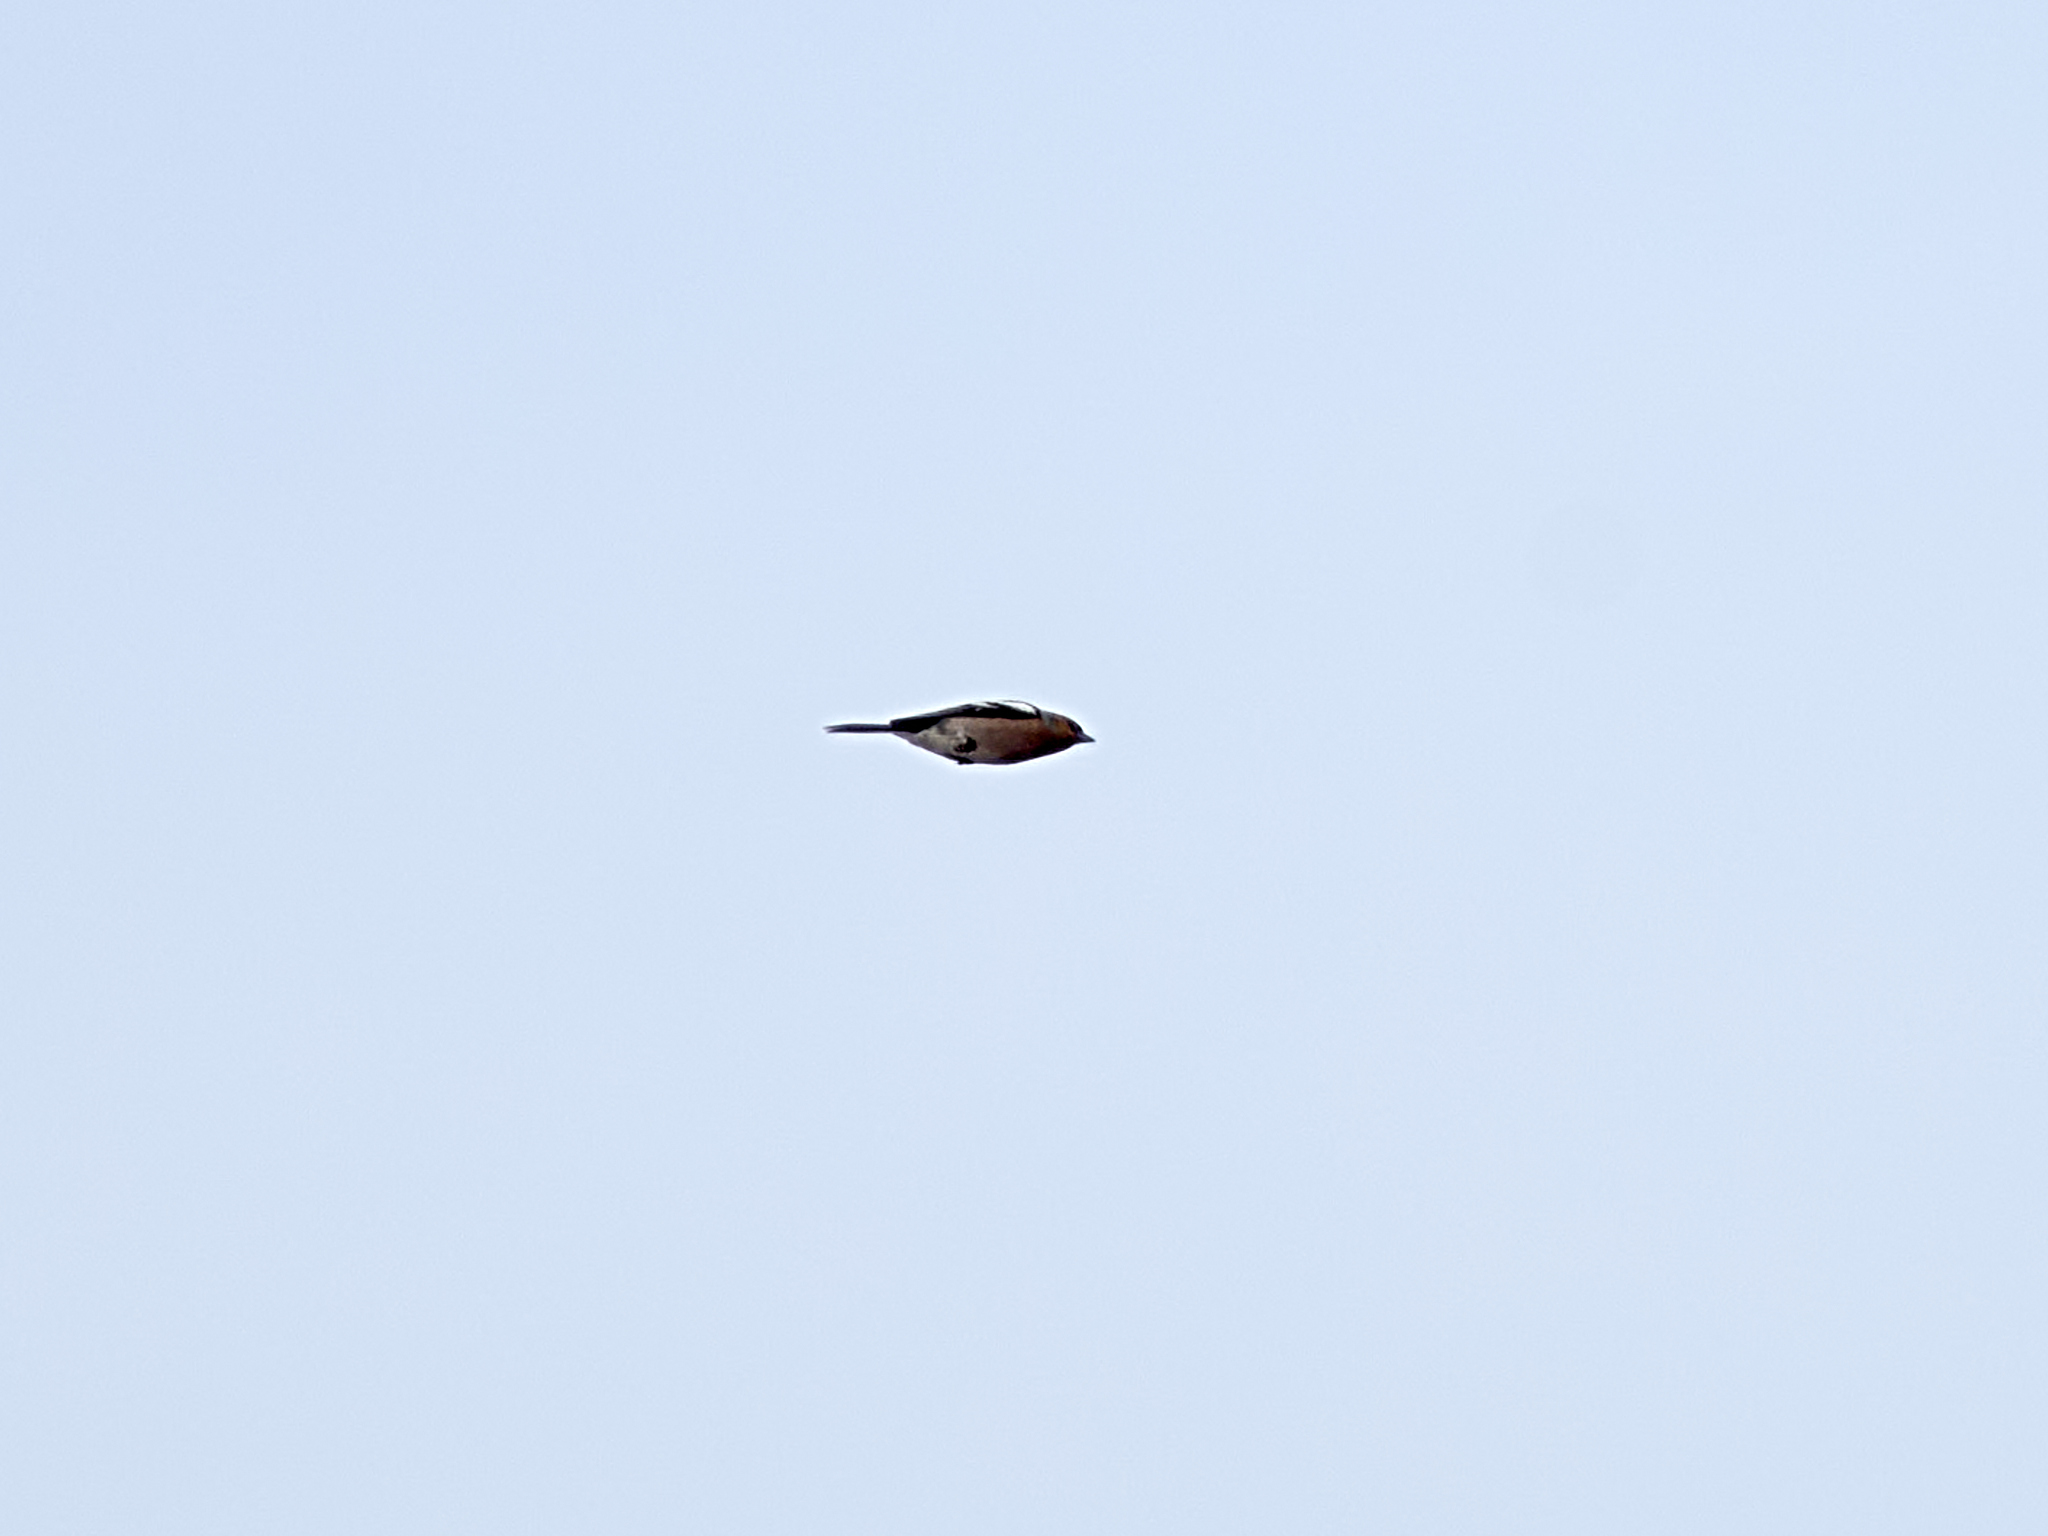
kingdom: Animalia
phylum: Chordata
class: Aves
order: Passeriformes
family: Fringillidae
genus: Fringilla
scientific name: Fringilla coelebs
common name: Common chaffinch
